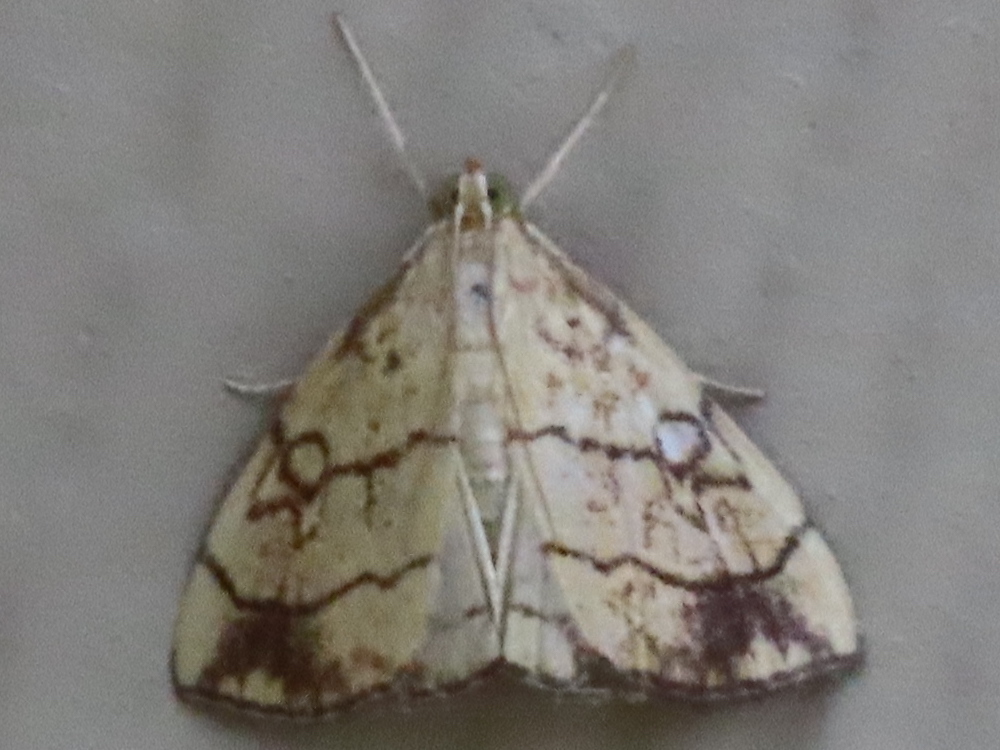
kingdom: Animalia
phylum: Arthropoda
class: Insecta
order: Lepidoptera
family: Crambidae
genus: Evergestis
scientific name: Evergestis pallidata
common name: Chequered pearl
